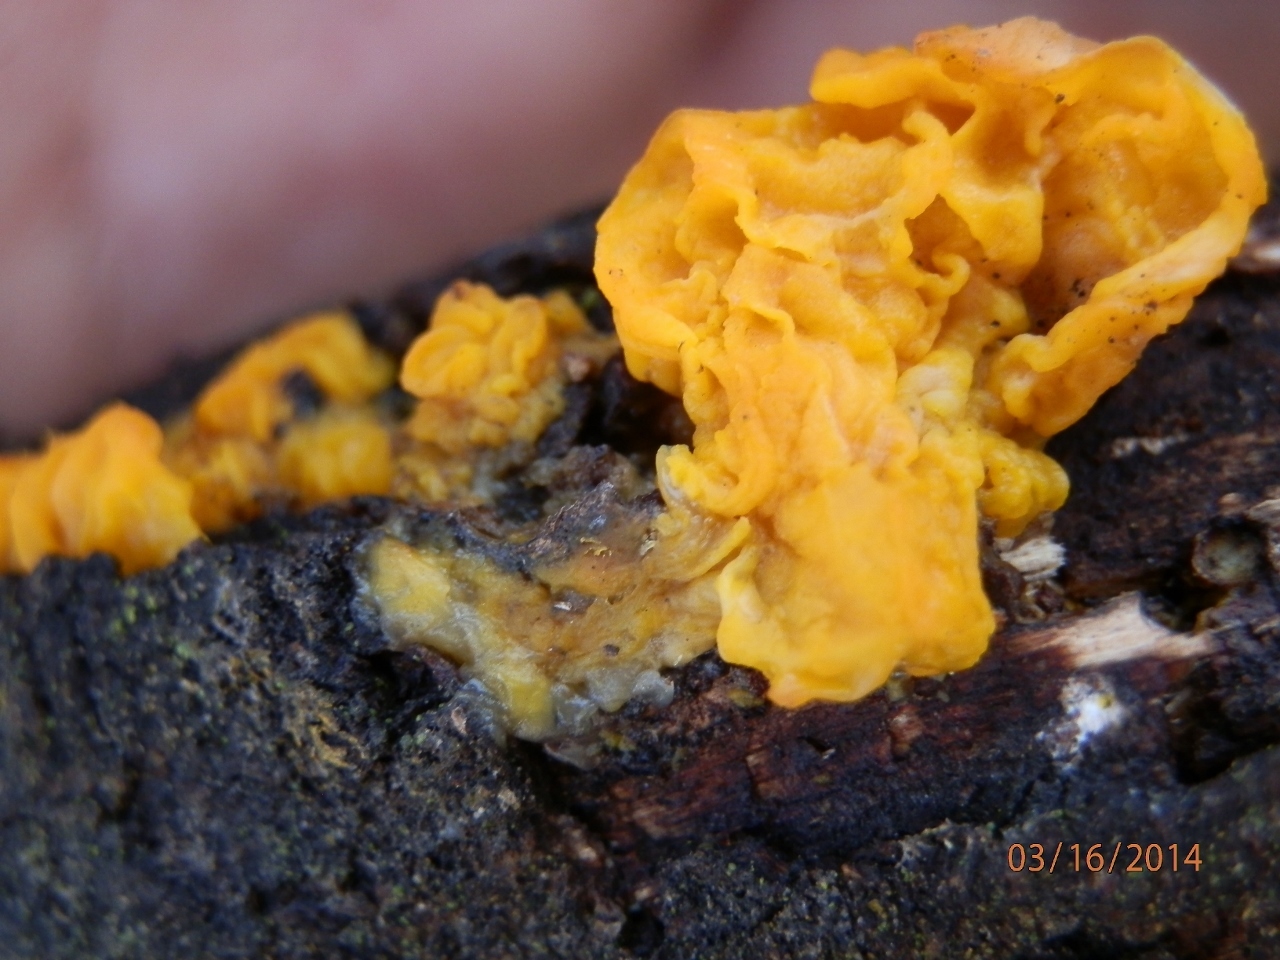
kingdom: Fungi
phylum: Basidiomycota
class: Tremellomycetes
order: Tremellales
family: Tremellaceae
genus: Tremella
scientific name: Tremella mesenterica
